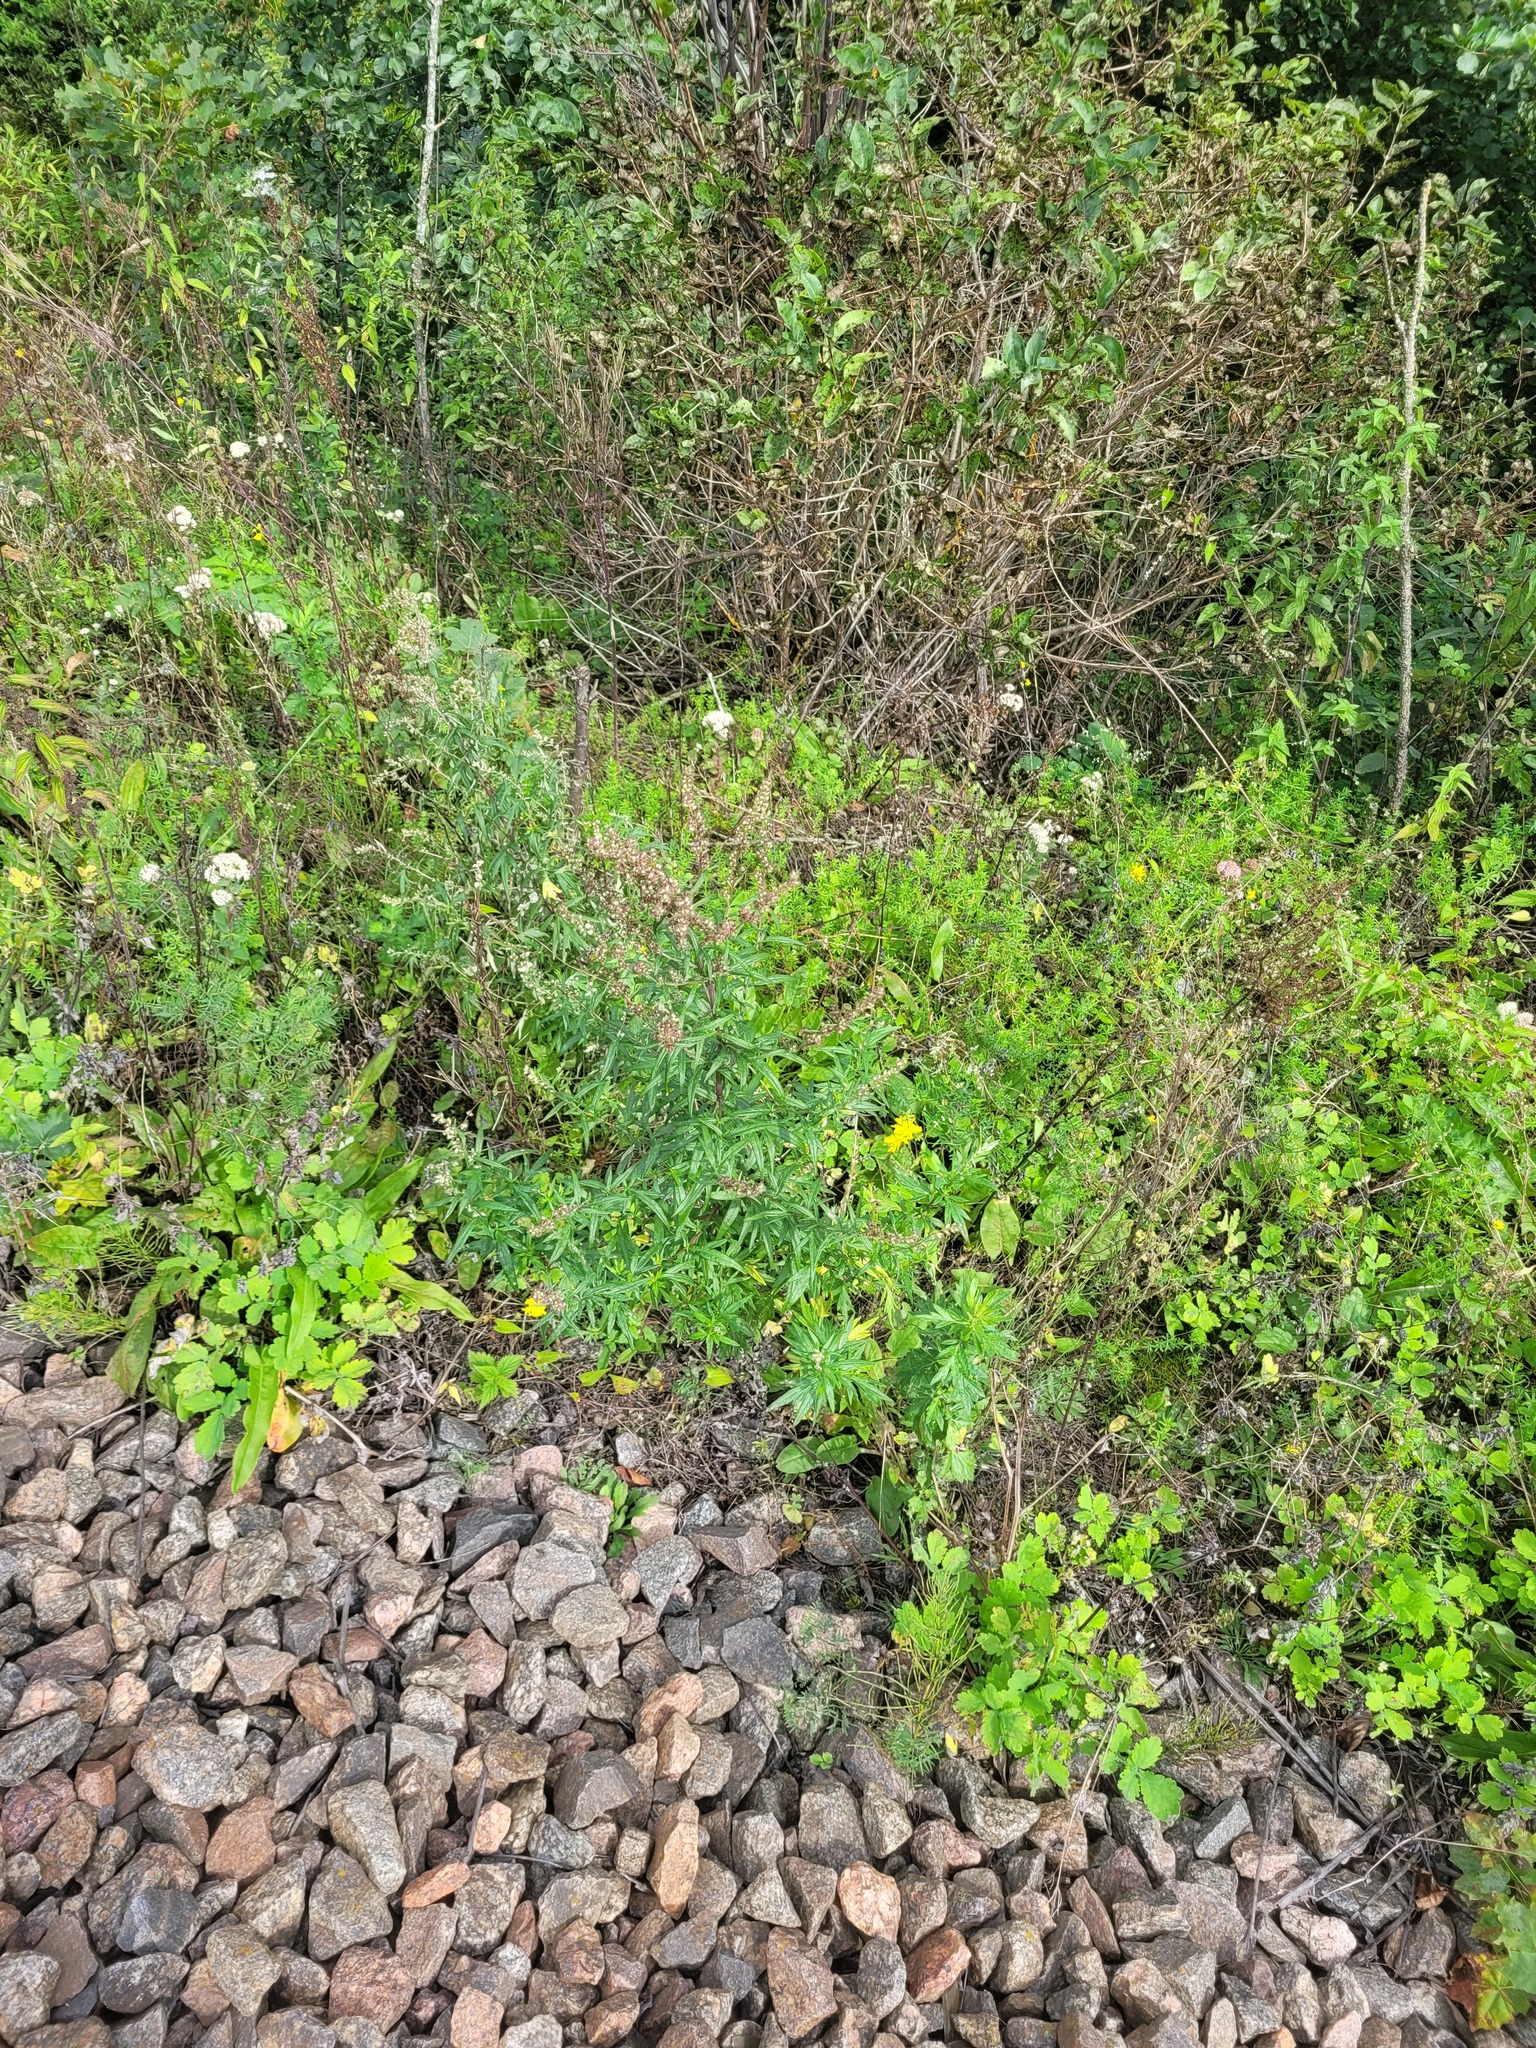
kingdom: Plantae
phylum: Tracheophyta
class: Magnoliopsida
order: Asterales
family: Asteraceae
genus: Artemisia
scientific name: Artemisia vulgaris
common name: Mugwort
